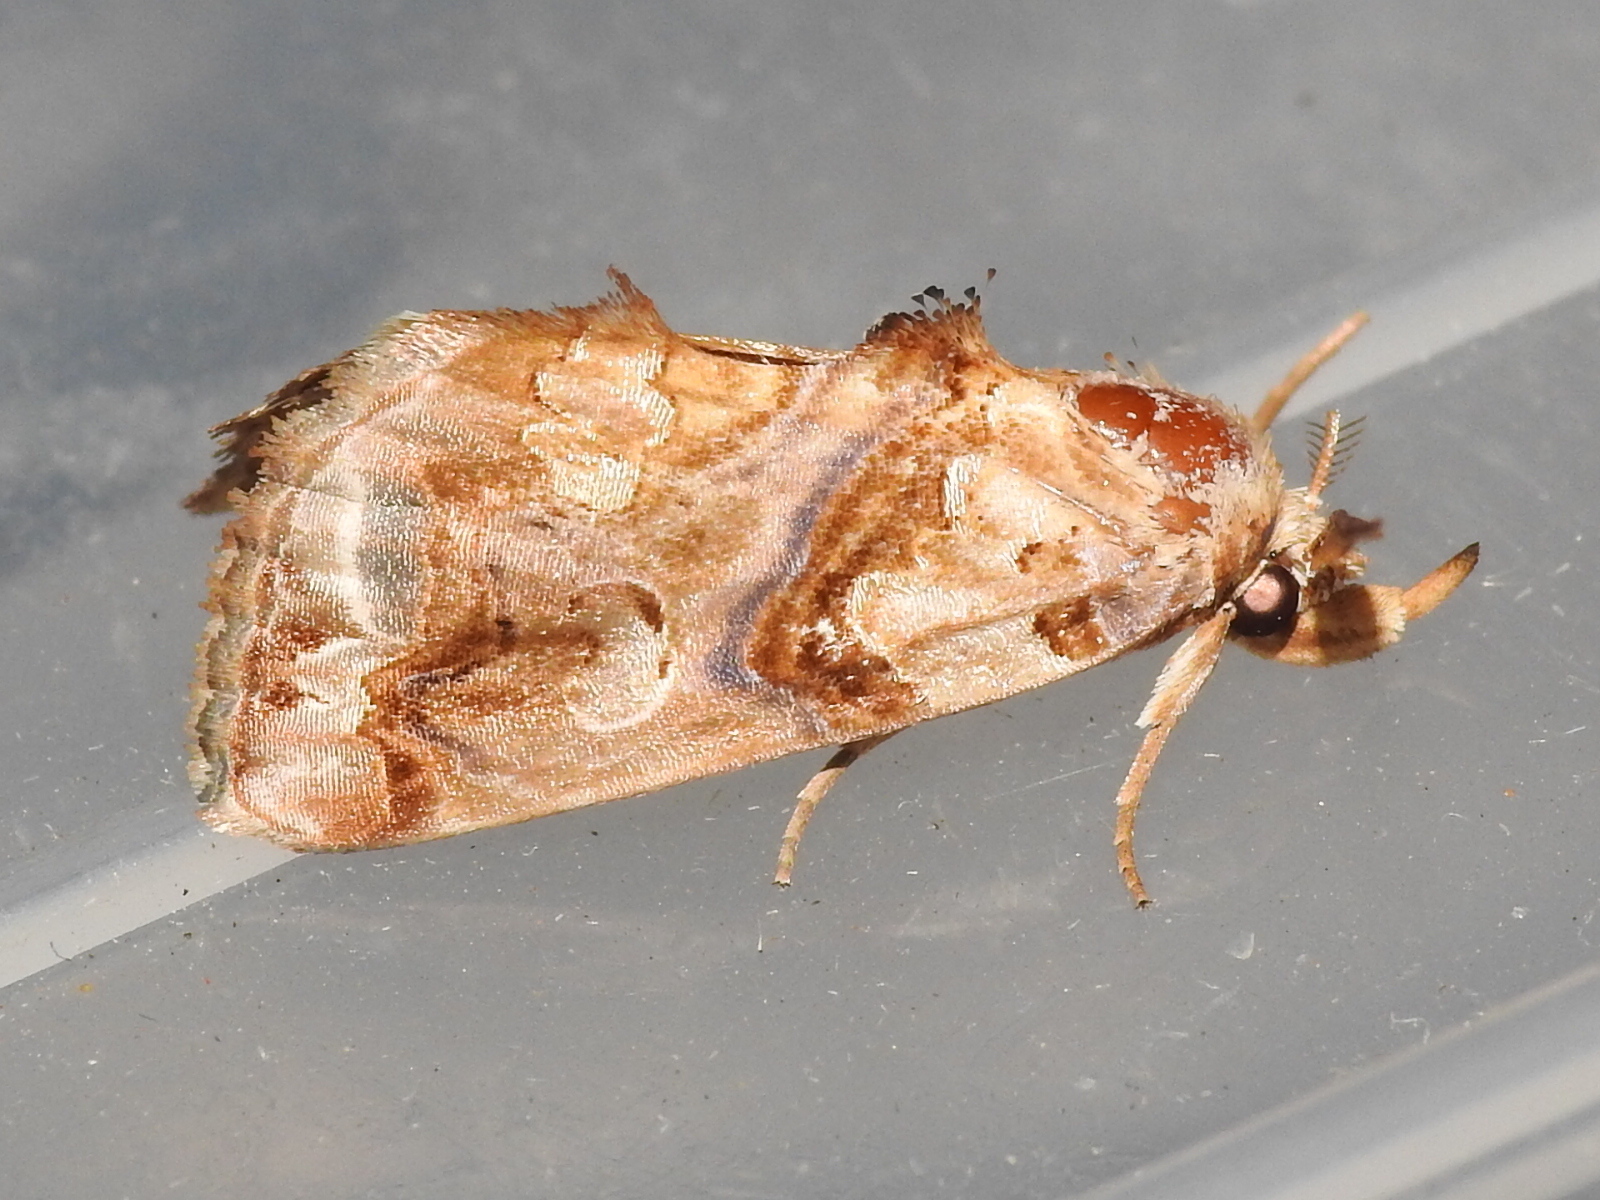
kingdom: Animalia
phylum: Arthropoda
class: Insecta
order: Lepidoptera
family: Erebidae
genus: Plusiodonta
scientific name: Plusiodonta compressipalpis
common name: Moonseed moth
